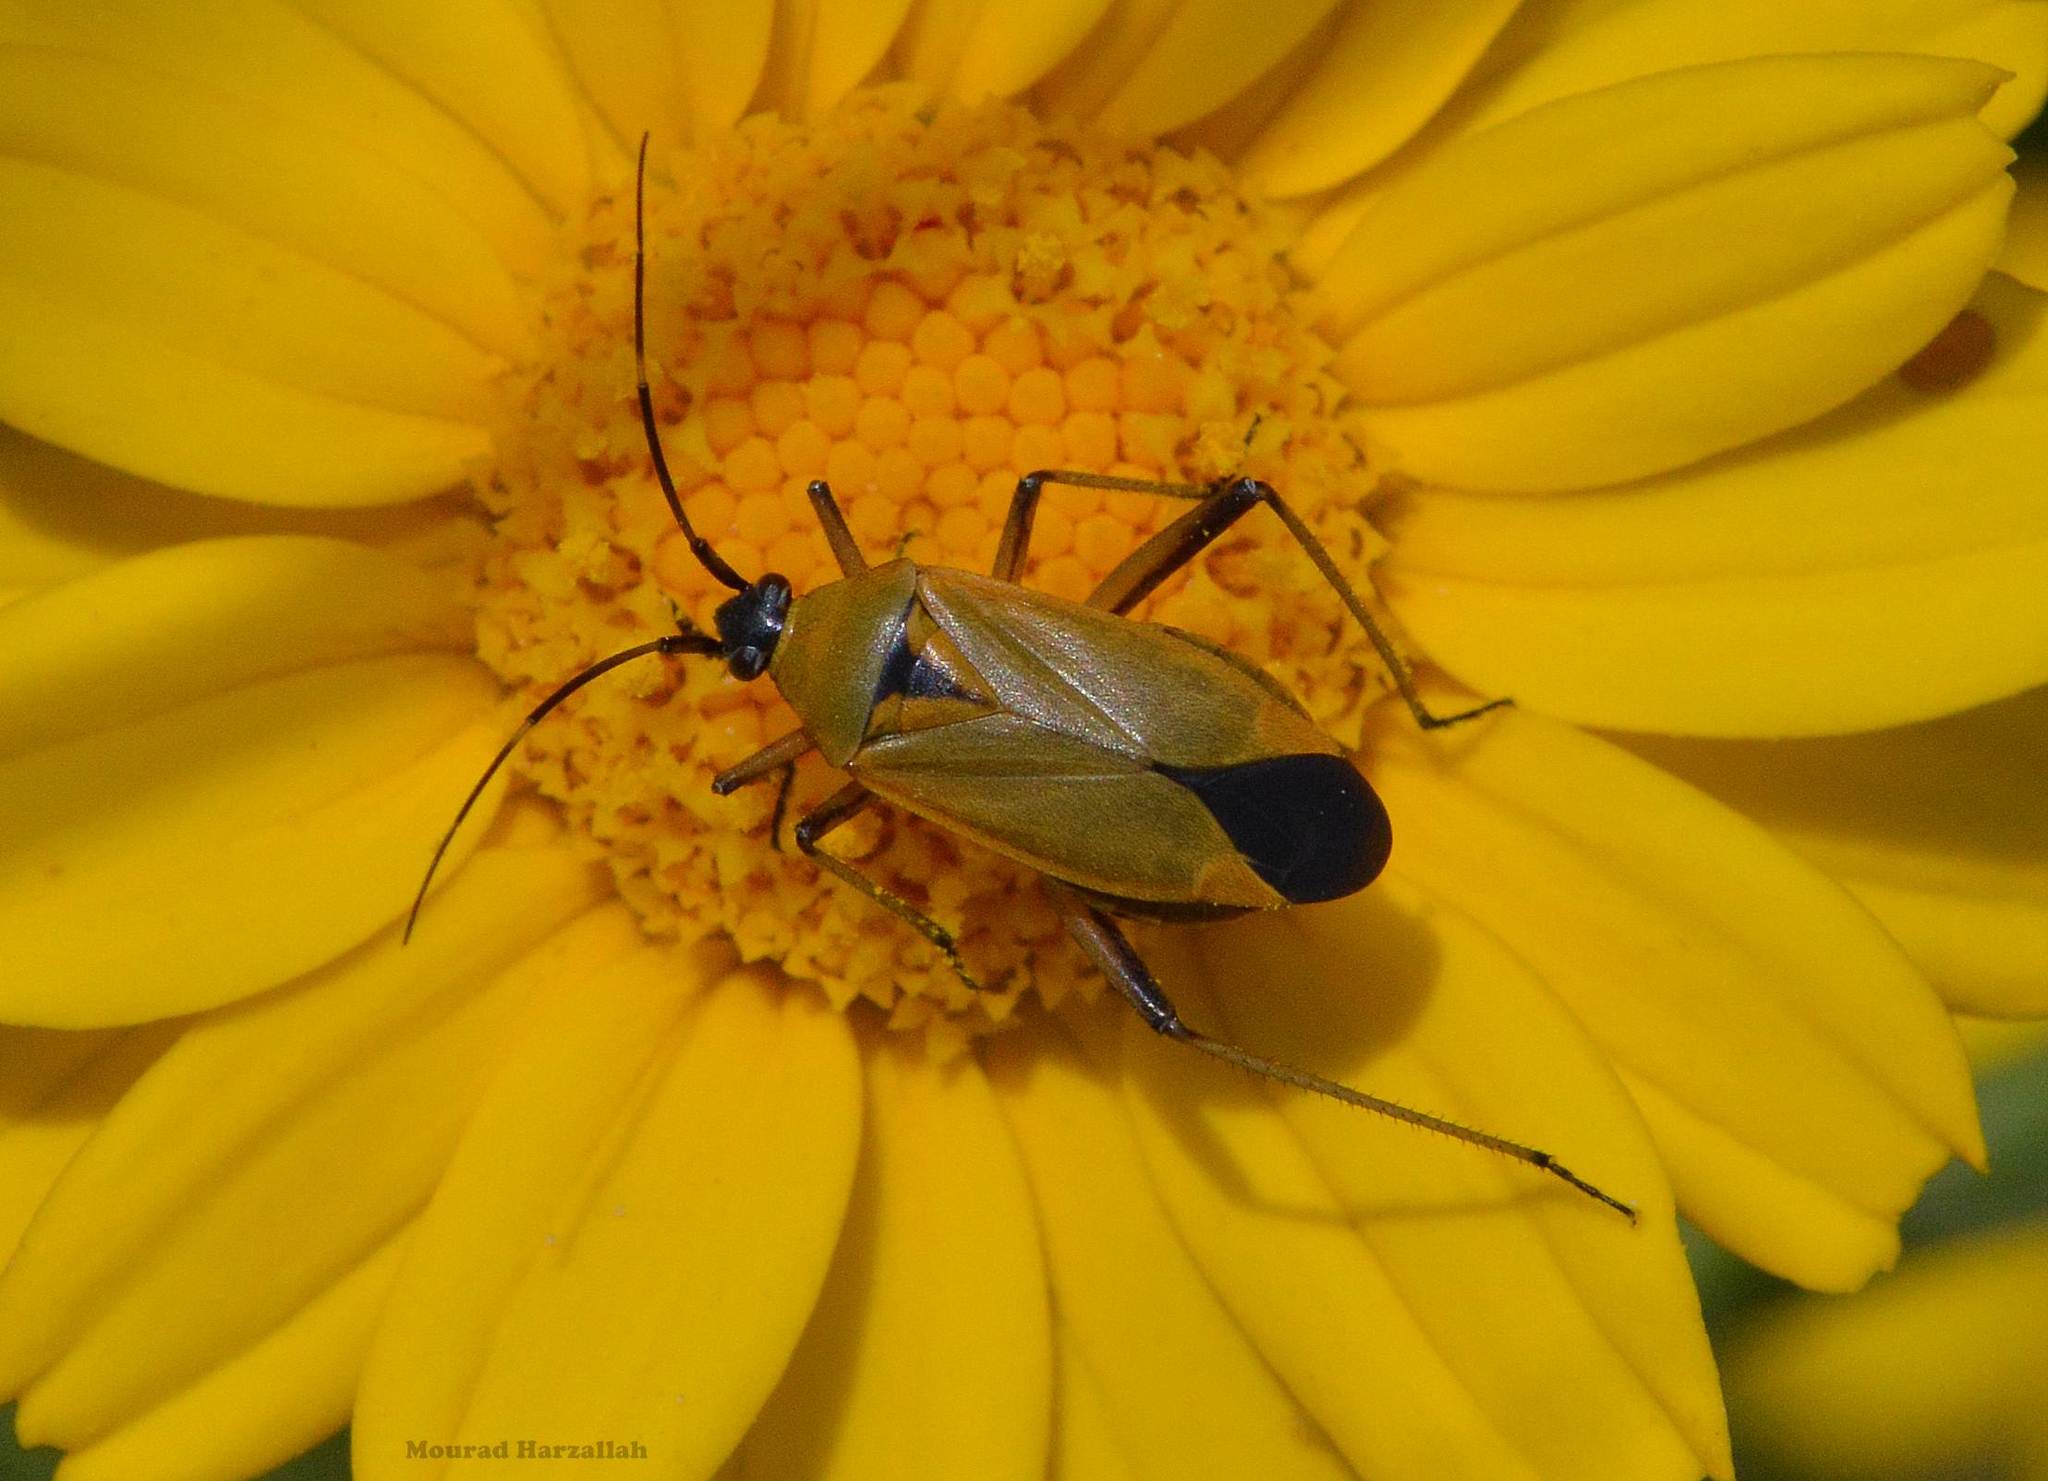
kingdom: Animalia
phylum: Arthropoda
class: Insecta
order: Hemiptera
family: Miridae
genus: Calocoris
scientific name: Calocoris nemoralis
